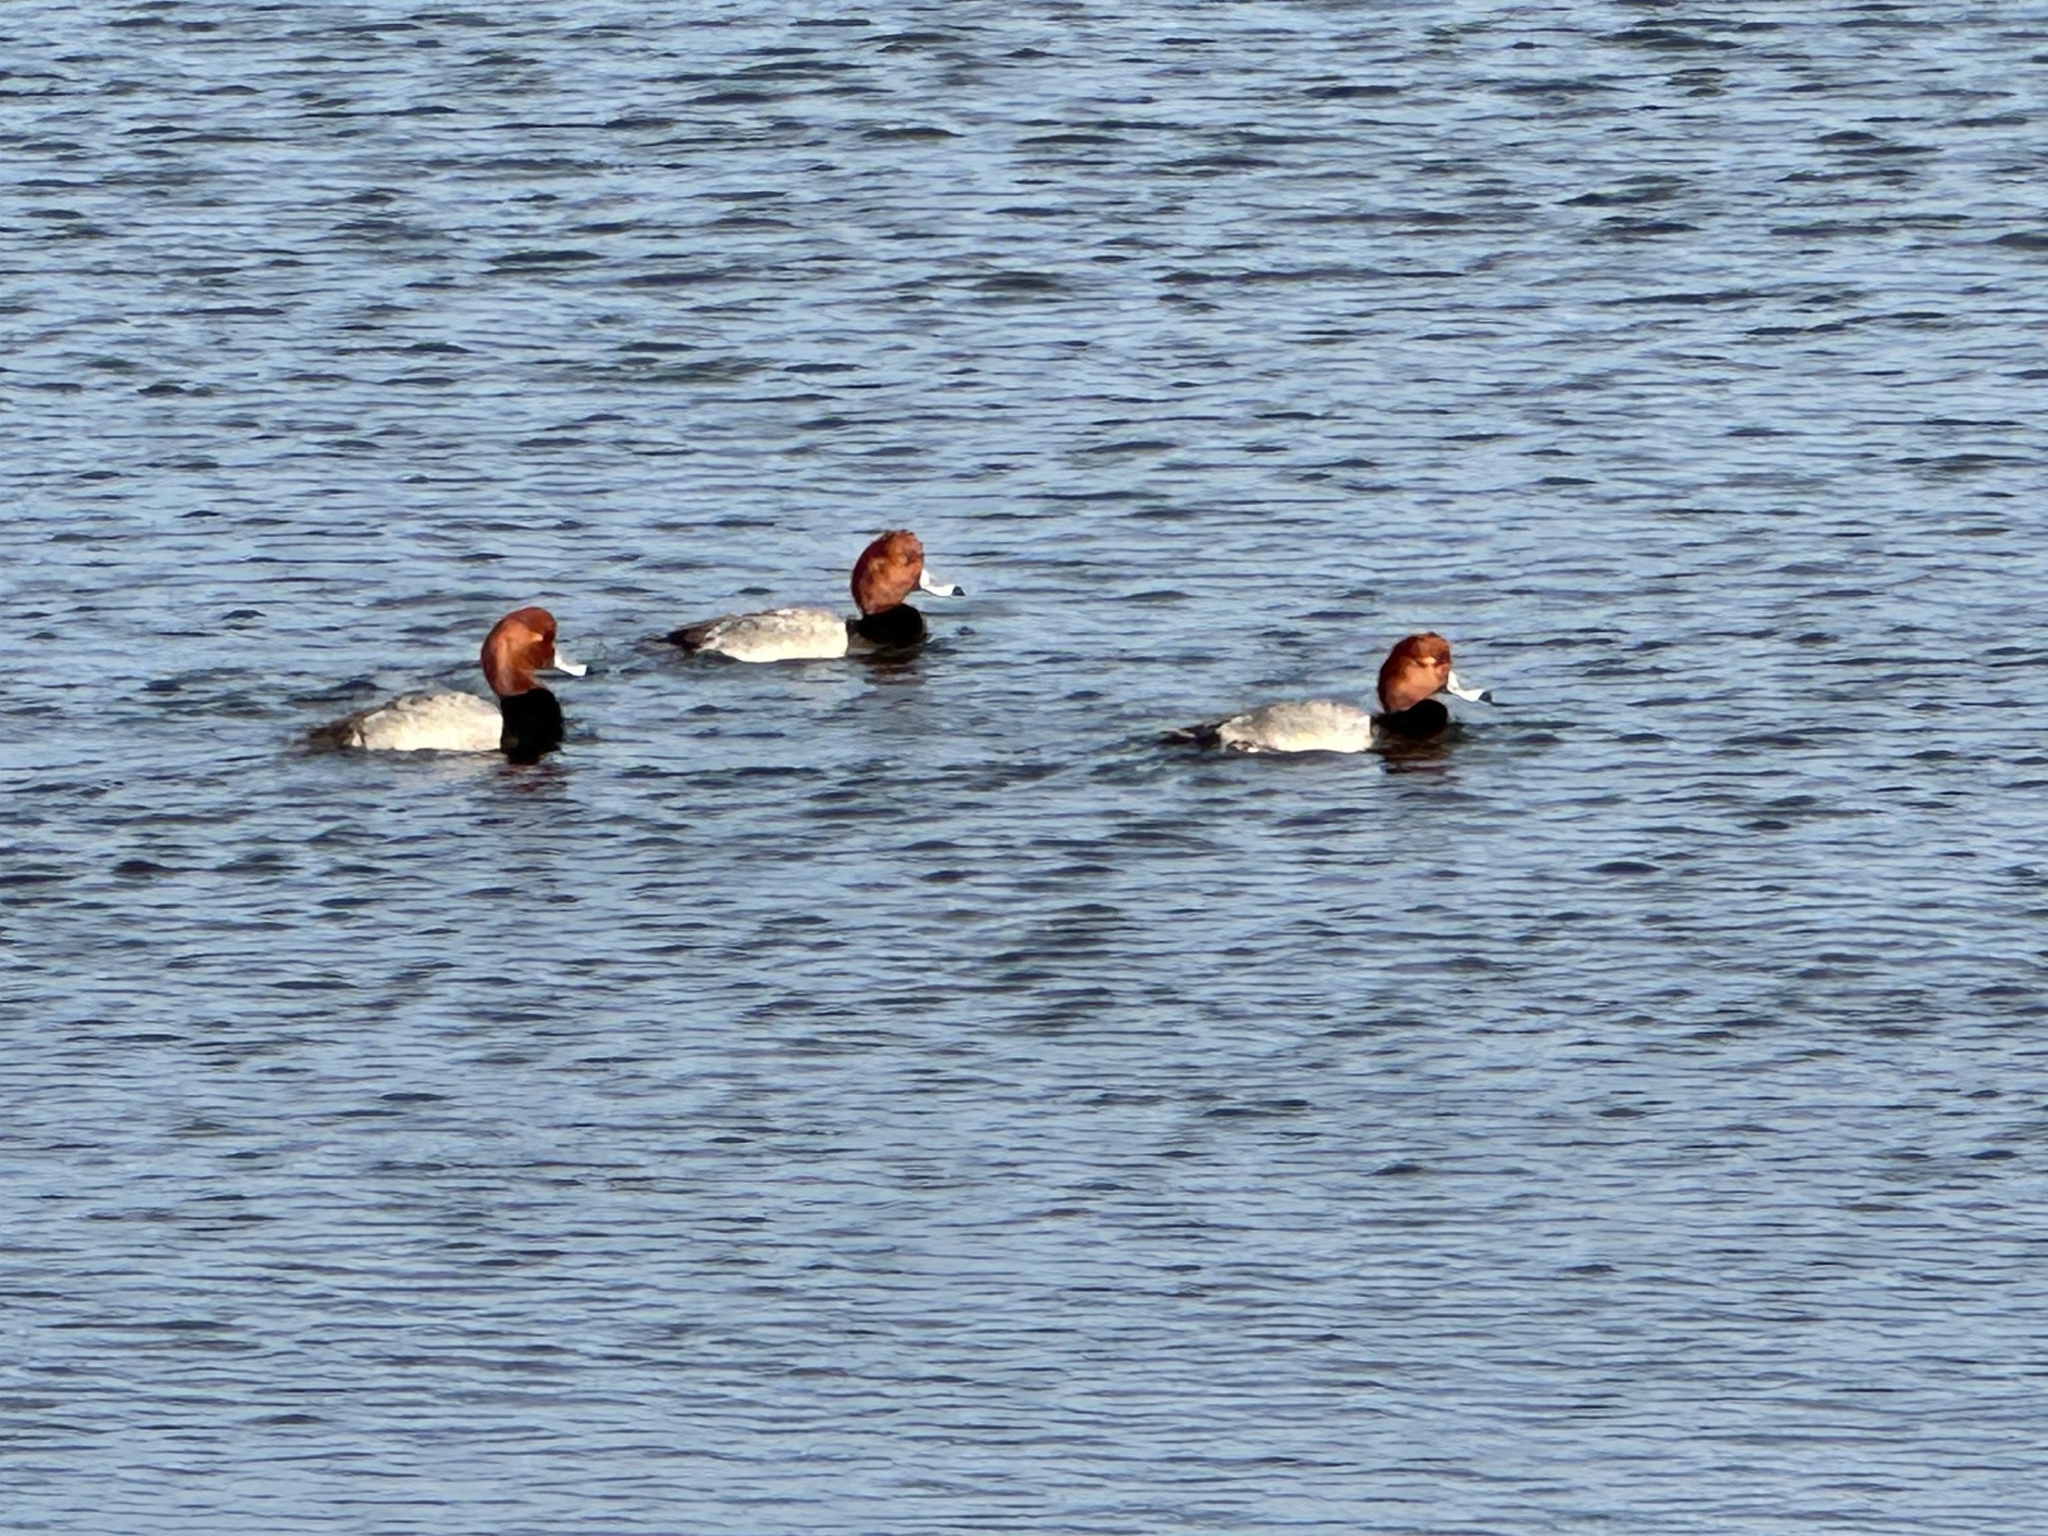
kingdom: Animalia
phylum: Chordata
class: Aves
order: Anseriformes
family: Anatidae
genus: Aythya
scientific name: Aythya americana
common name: Redhead
